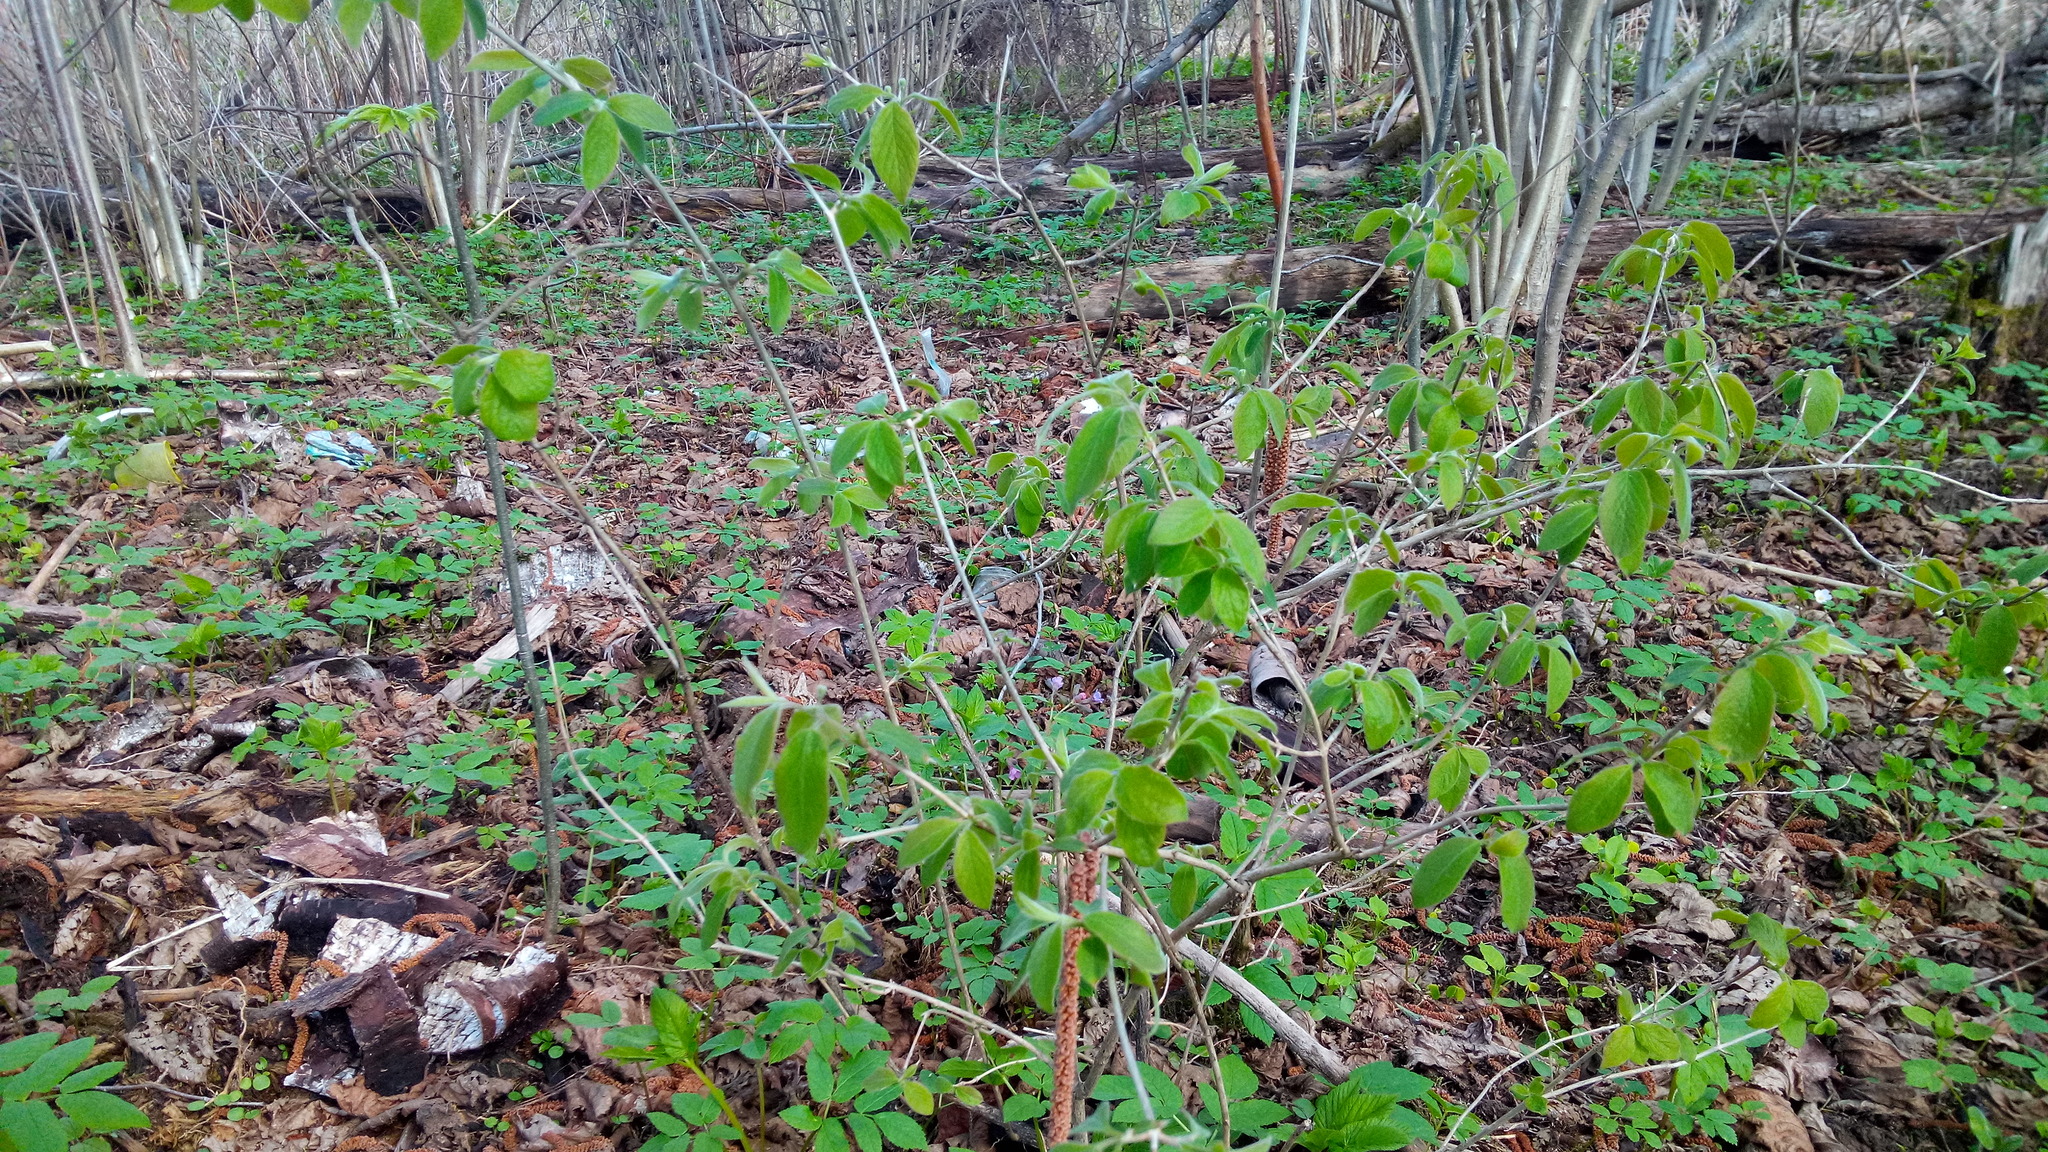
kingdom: Plantae
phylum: Tracheophyta
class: Magnoliopsida
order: Dipsacales
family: Caprifoliaceae
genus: Lonicera
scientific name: Lonicera xylosteum
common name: Fly honeysuckle
